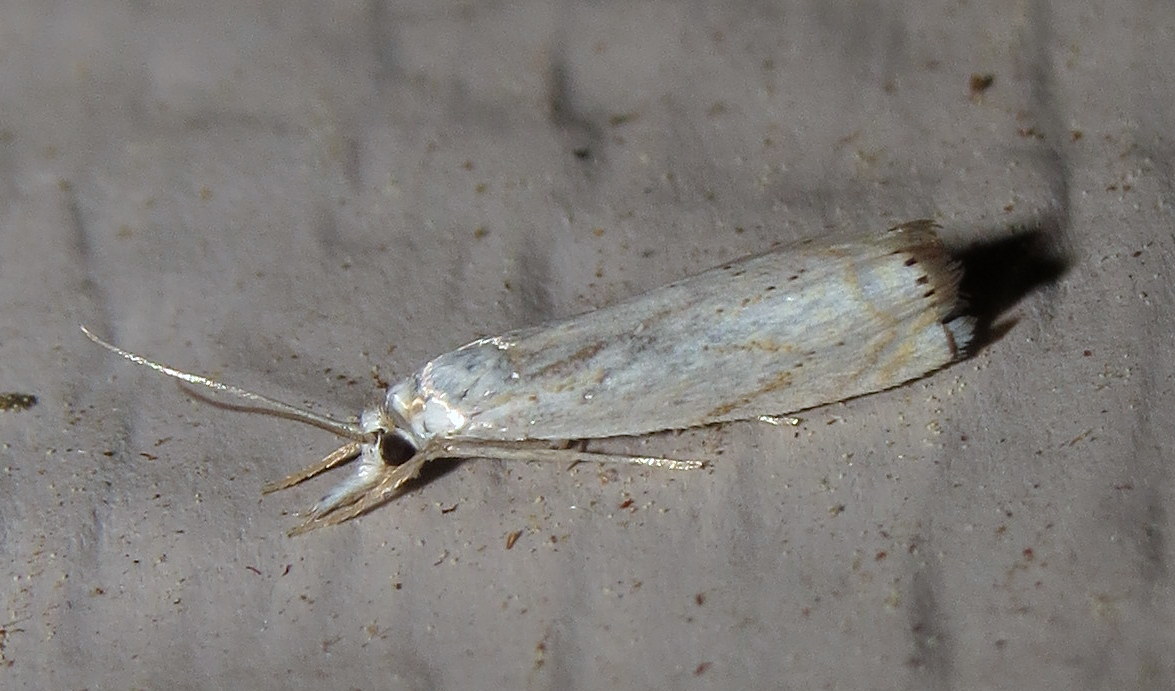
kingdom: Animalia
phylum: Arthropoda
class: Insecta
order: Lepidoptera
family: Crambidae
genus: Crambus
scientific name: Crambus albellus
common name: Small white grass-veneer
